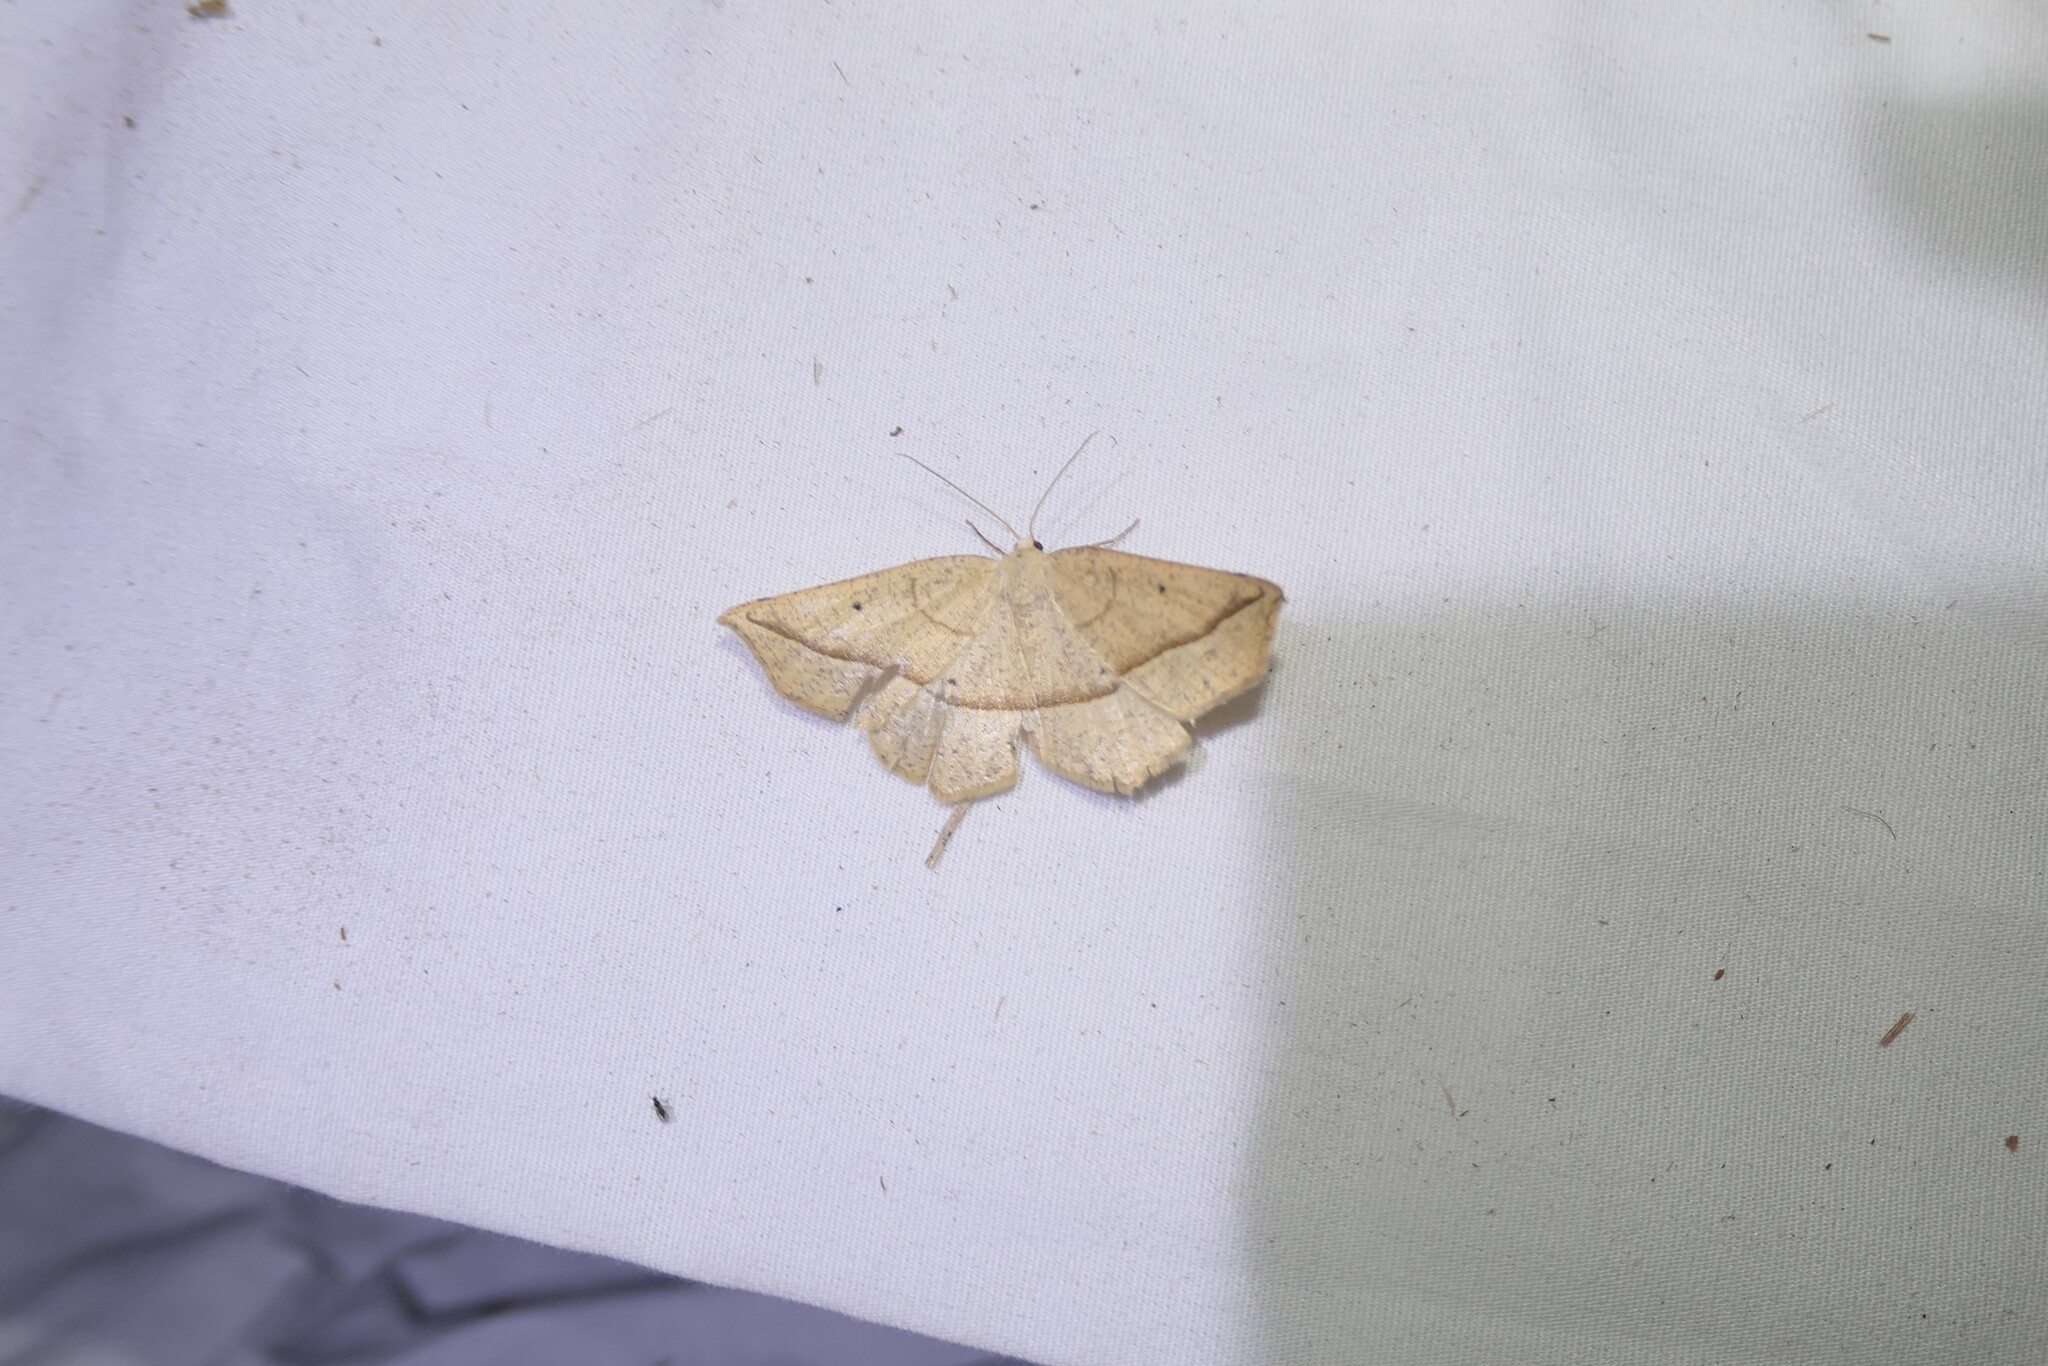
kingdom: Animalia
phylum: Arthropoda
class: Insecta
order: Lepidoptera
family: Geometridae
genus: Eusarca
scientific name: Eusarca confusaria
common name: Confused eusarca
